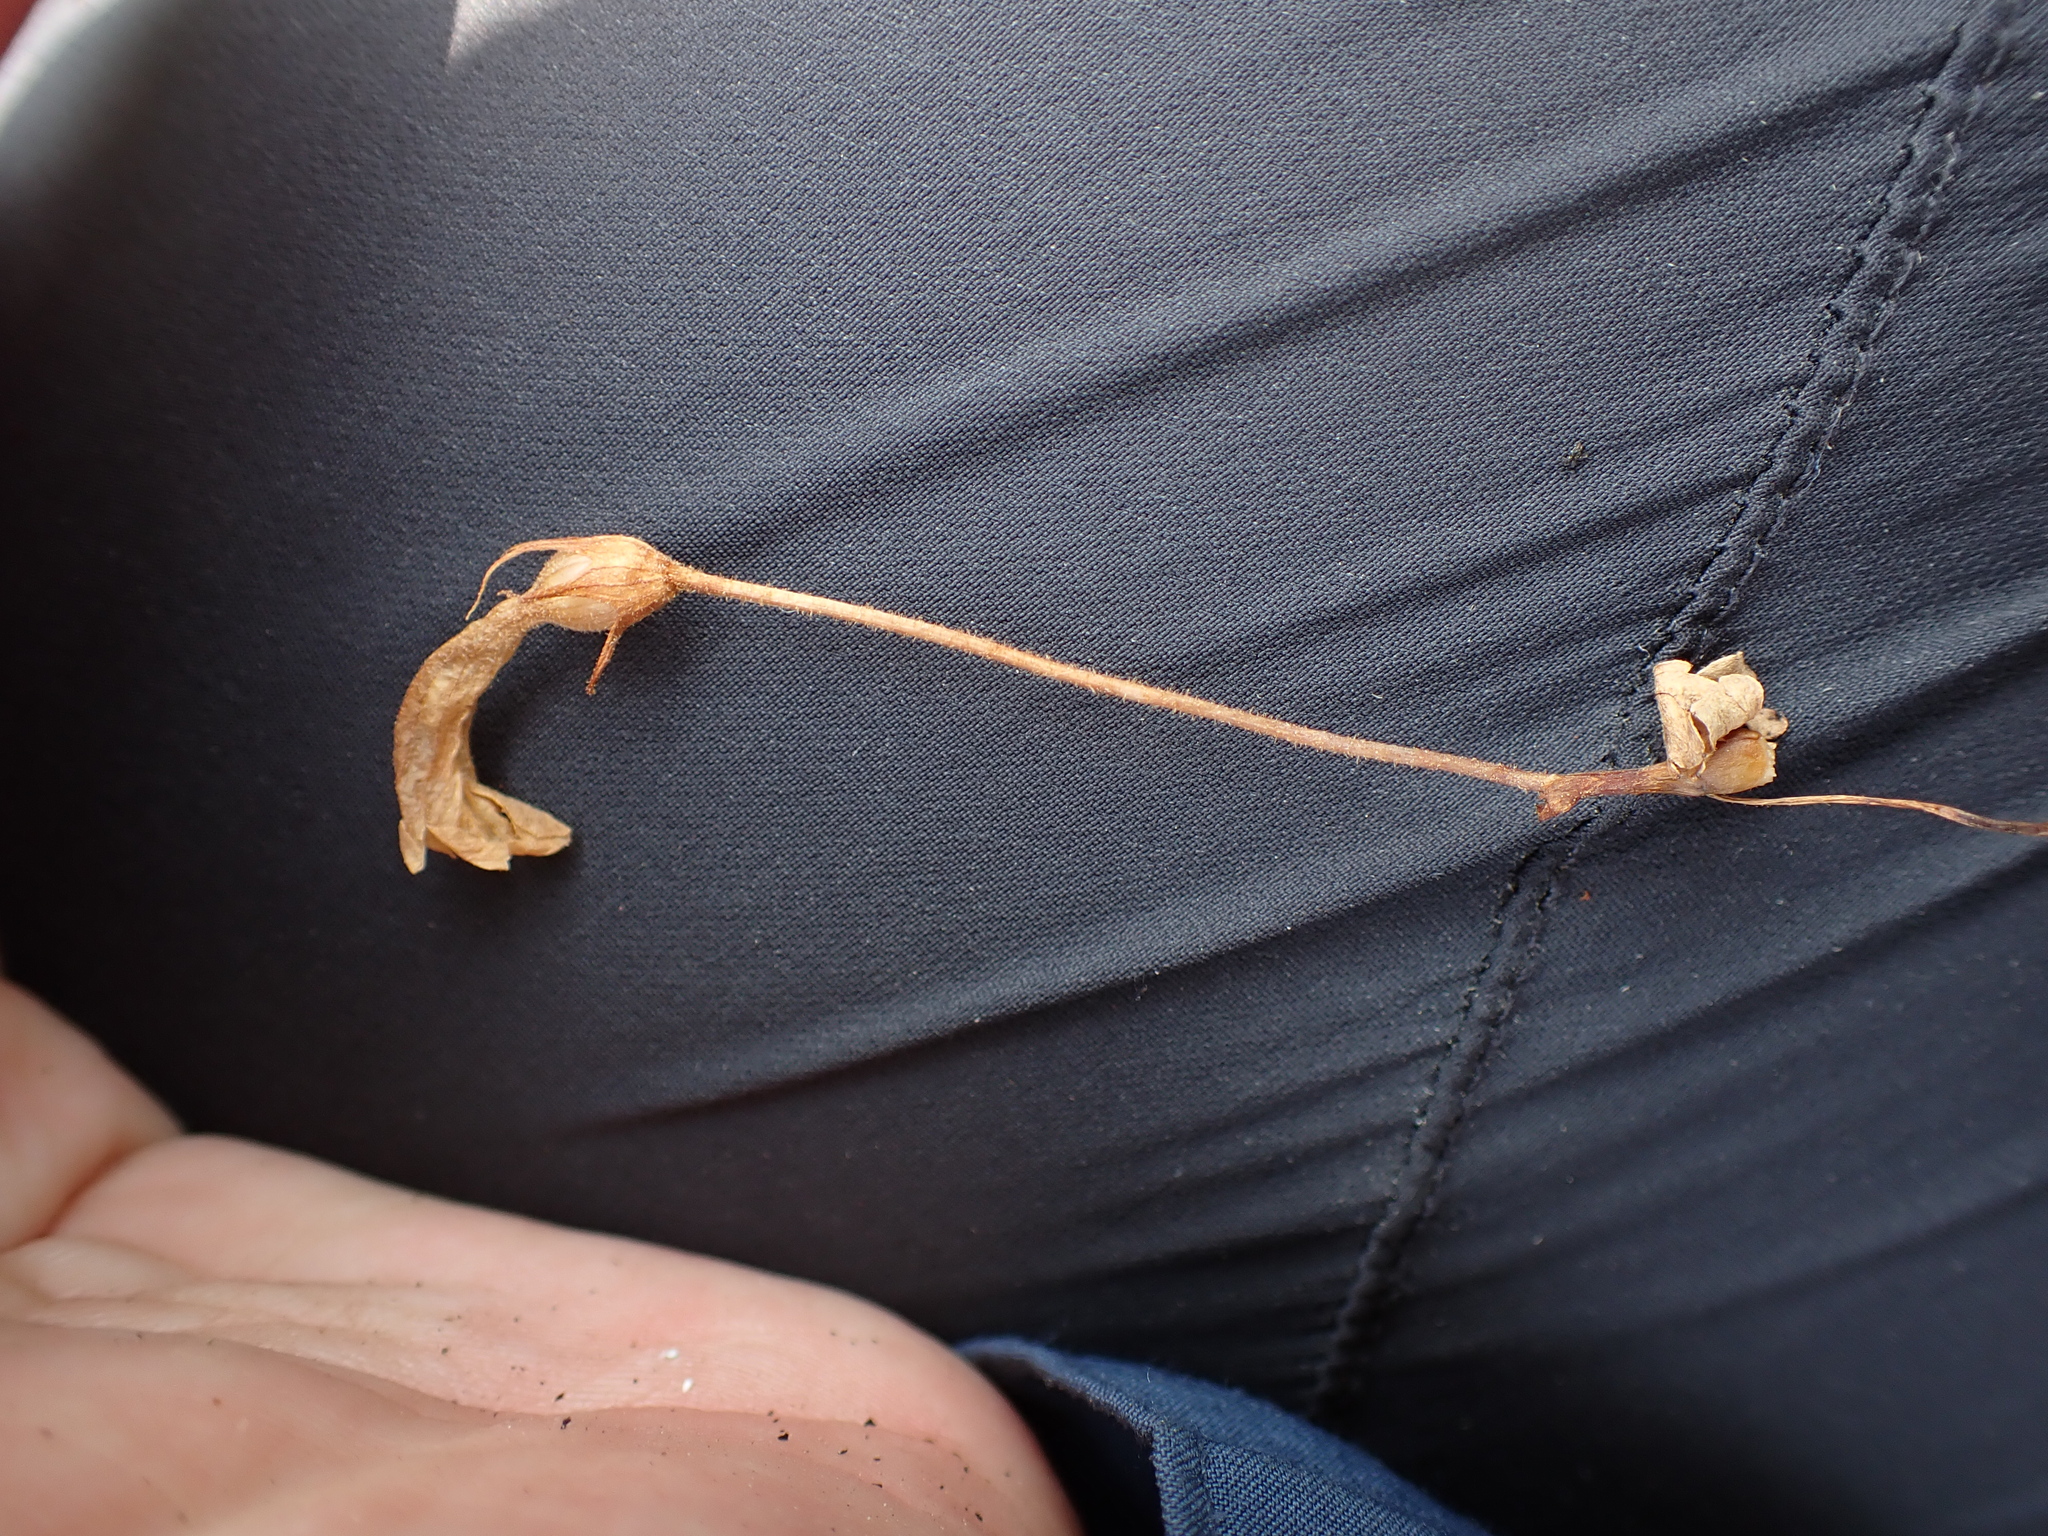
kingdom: Plantae
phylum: Tracheophyta
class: Magnoliopsida
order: Lamiales
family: Orobanchaceae
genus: Aphyllon
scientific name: Aphyllon uniflorum
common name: One-flowered broomrape
